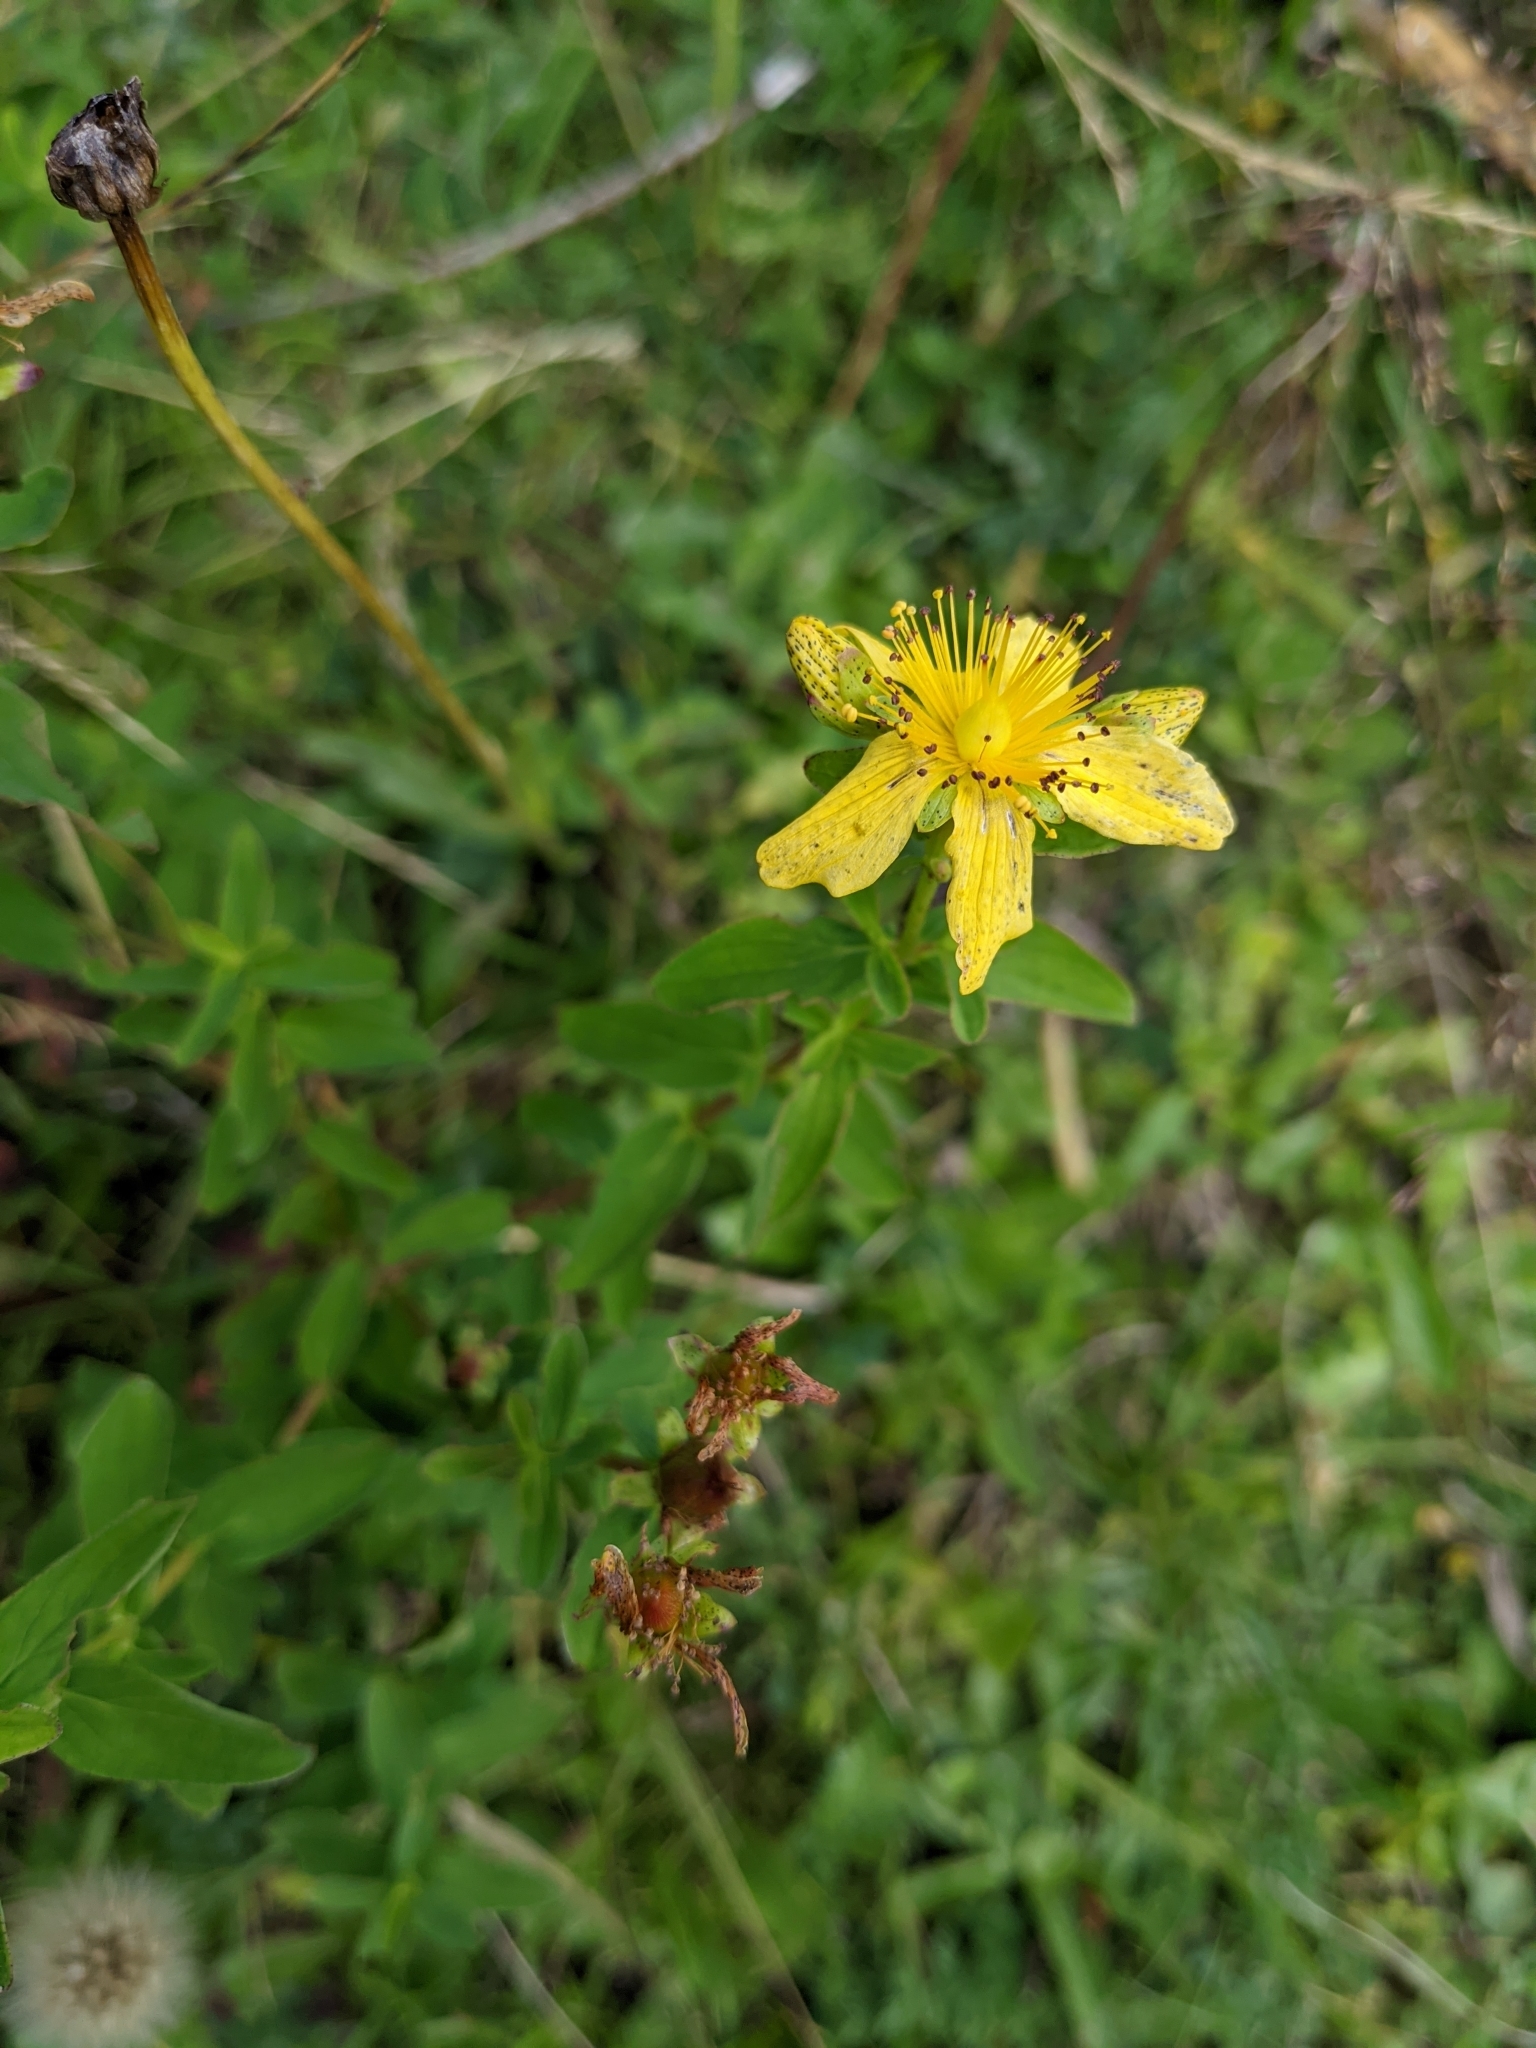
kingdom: Plantae
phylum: Tracheophyta
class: Magnoliopsida
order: Malpighiales
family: Hypericaceae
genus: Hypericum
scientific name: Hypericum maculatum
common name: Imperforate st. john's-wort
